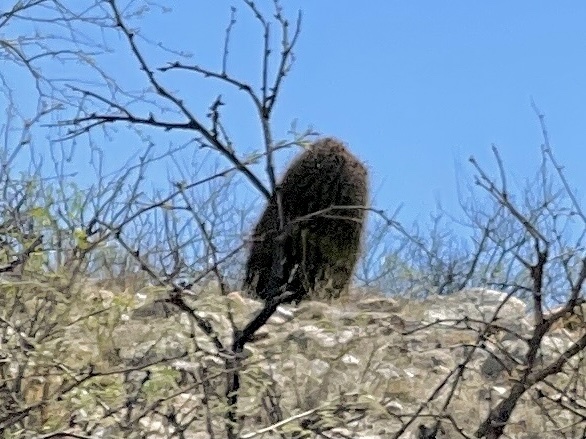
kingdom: Plantae
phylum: Tracheophyta
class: Magnoliopsida
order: Caryophyllales
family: Cactaceae
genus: Ferocactus
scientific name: Ferocactus wislizeni
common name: Candy barrel cactus
